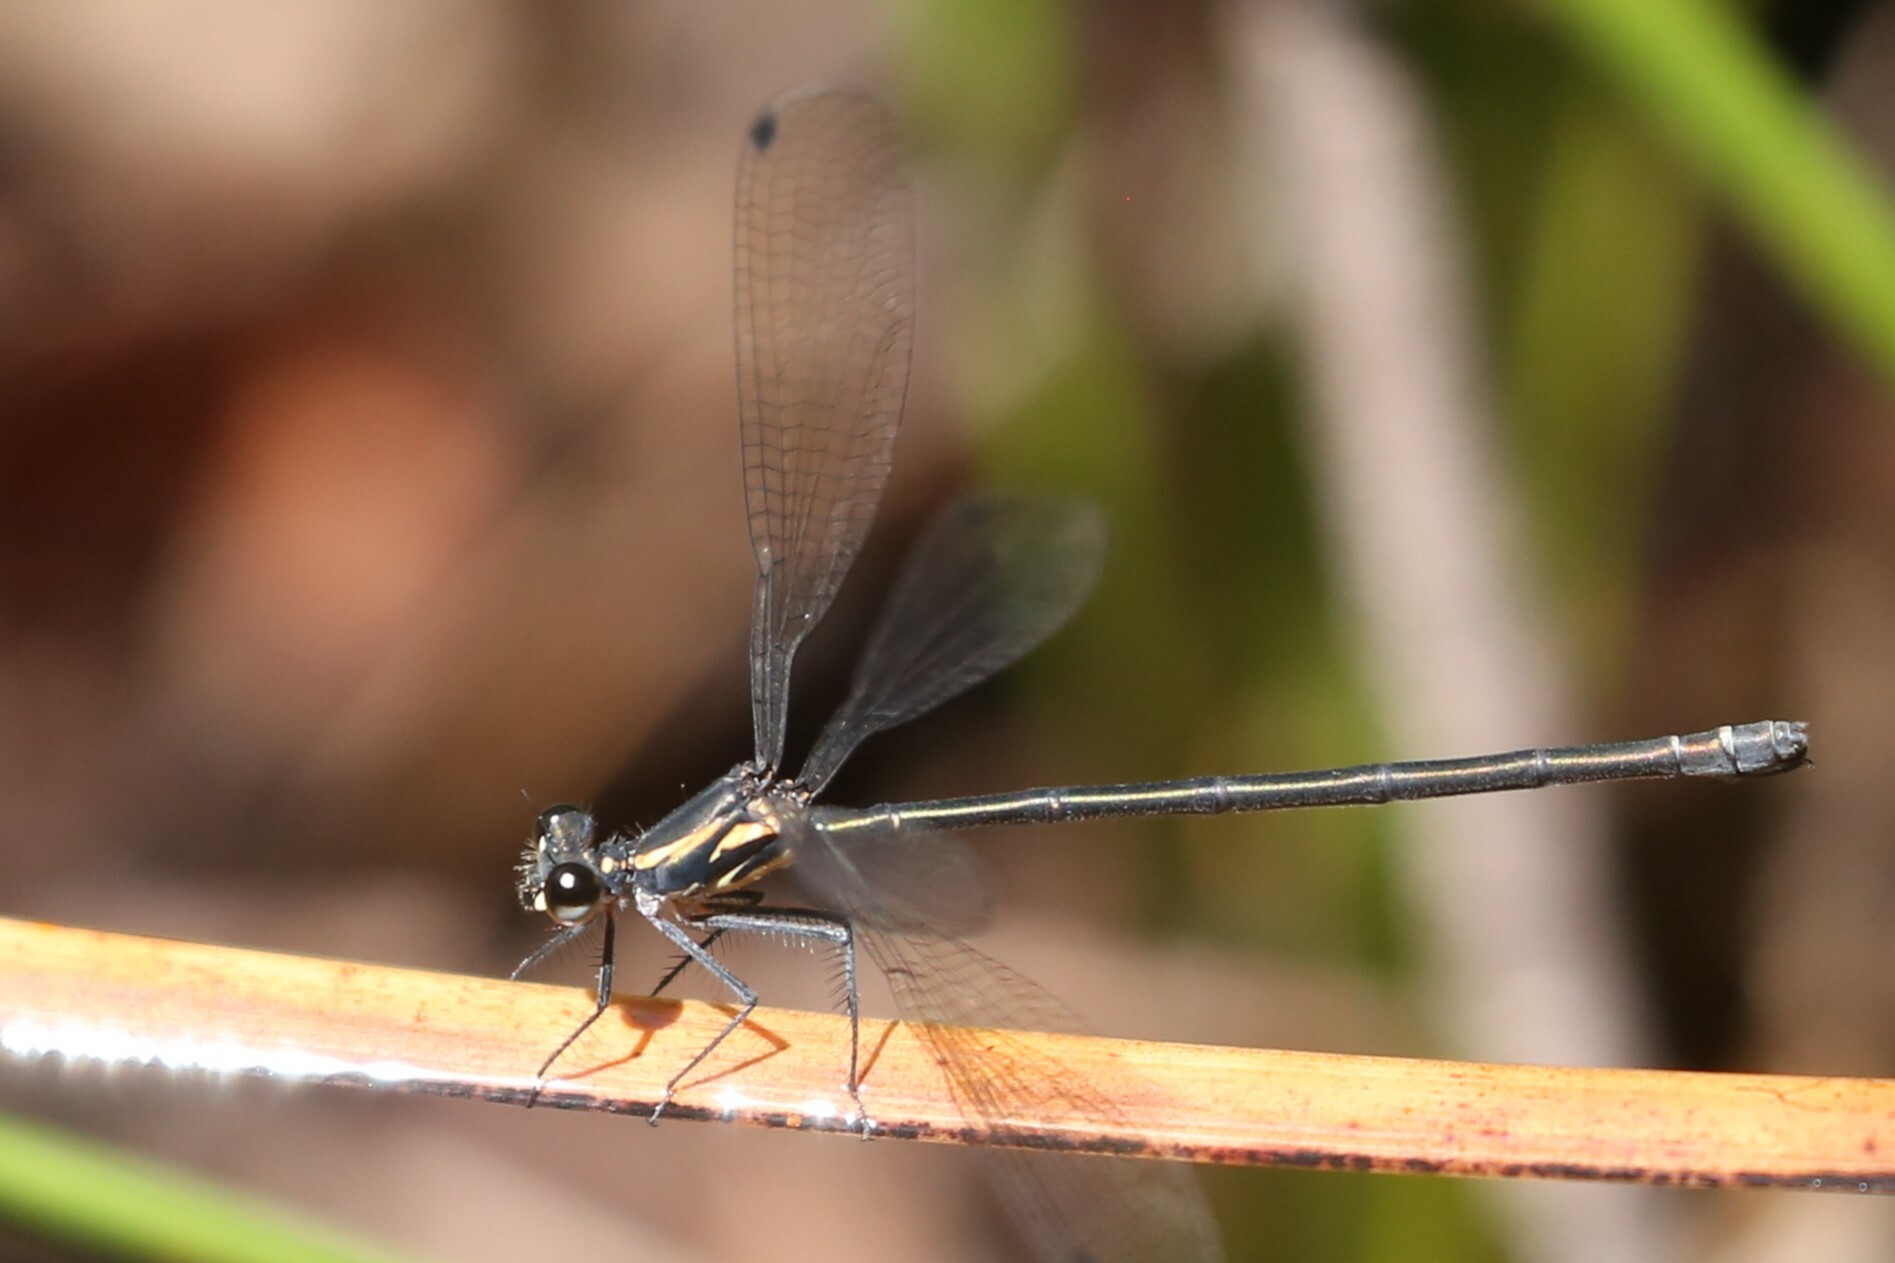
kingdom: Animalia
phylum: Arthropoda
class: Insecta
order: Odonata
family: Argiolestidae
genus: Austroargiolestes
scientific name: Austroargiolestes icteromelas
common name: Common flatwing
